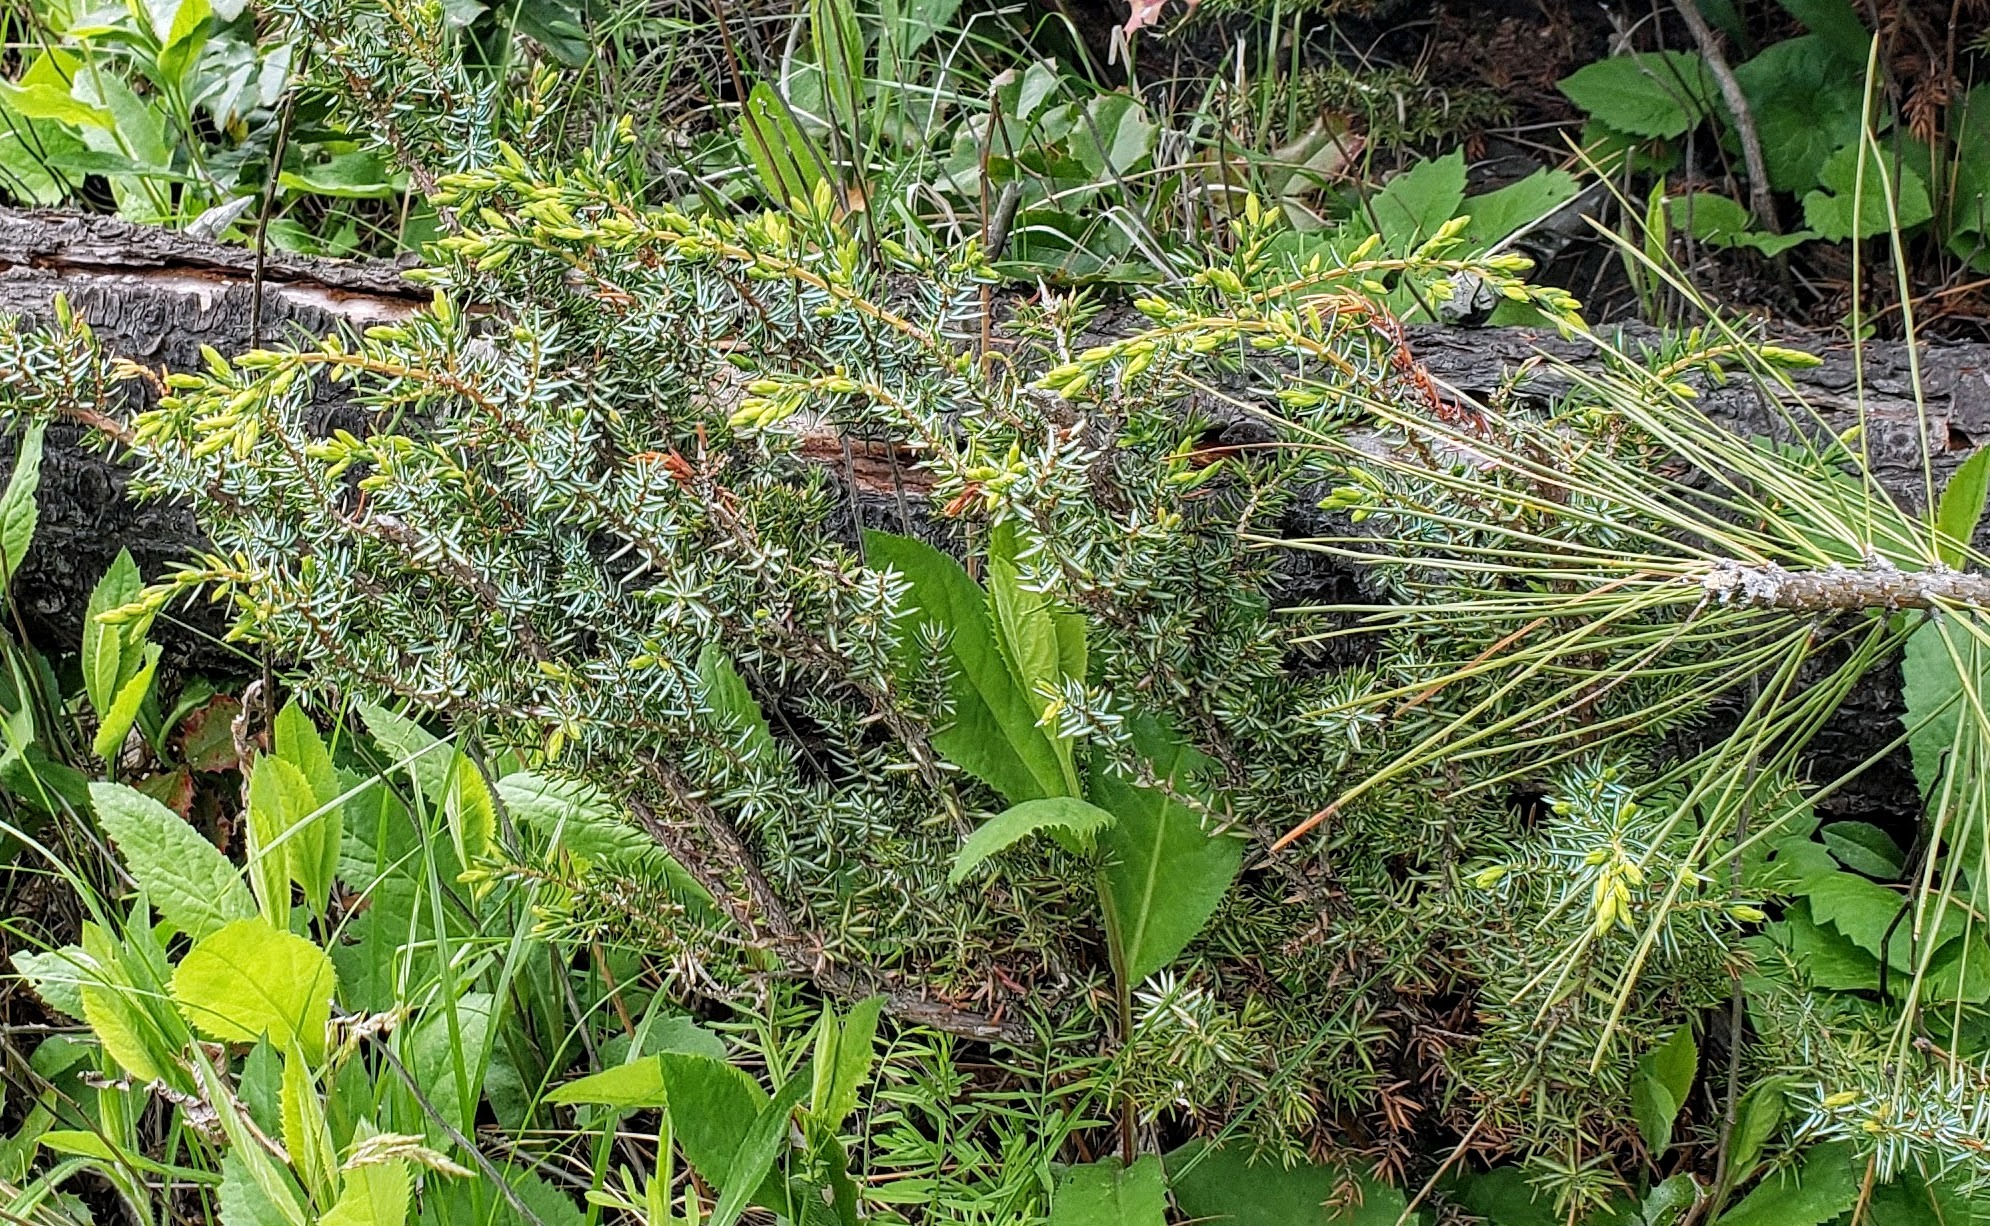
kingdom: Plantae
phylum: Tracheophyta
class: Pinopsida
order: Pinales
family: Cupressaceae
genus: Juniperus
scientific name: Juniperus communis
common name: Common juniper
